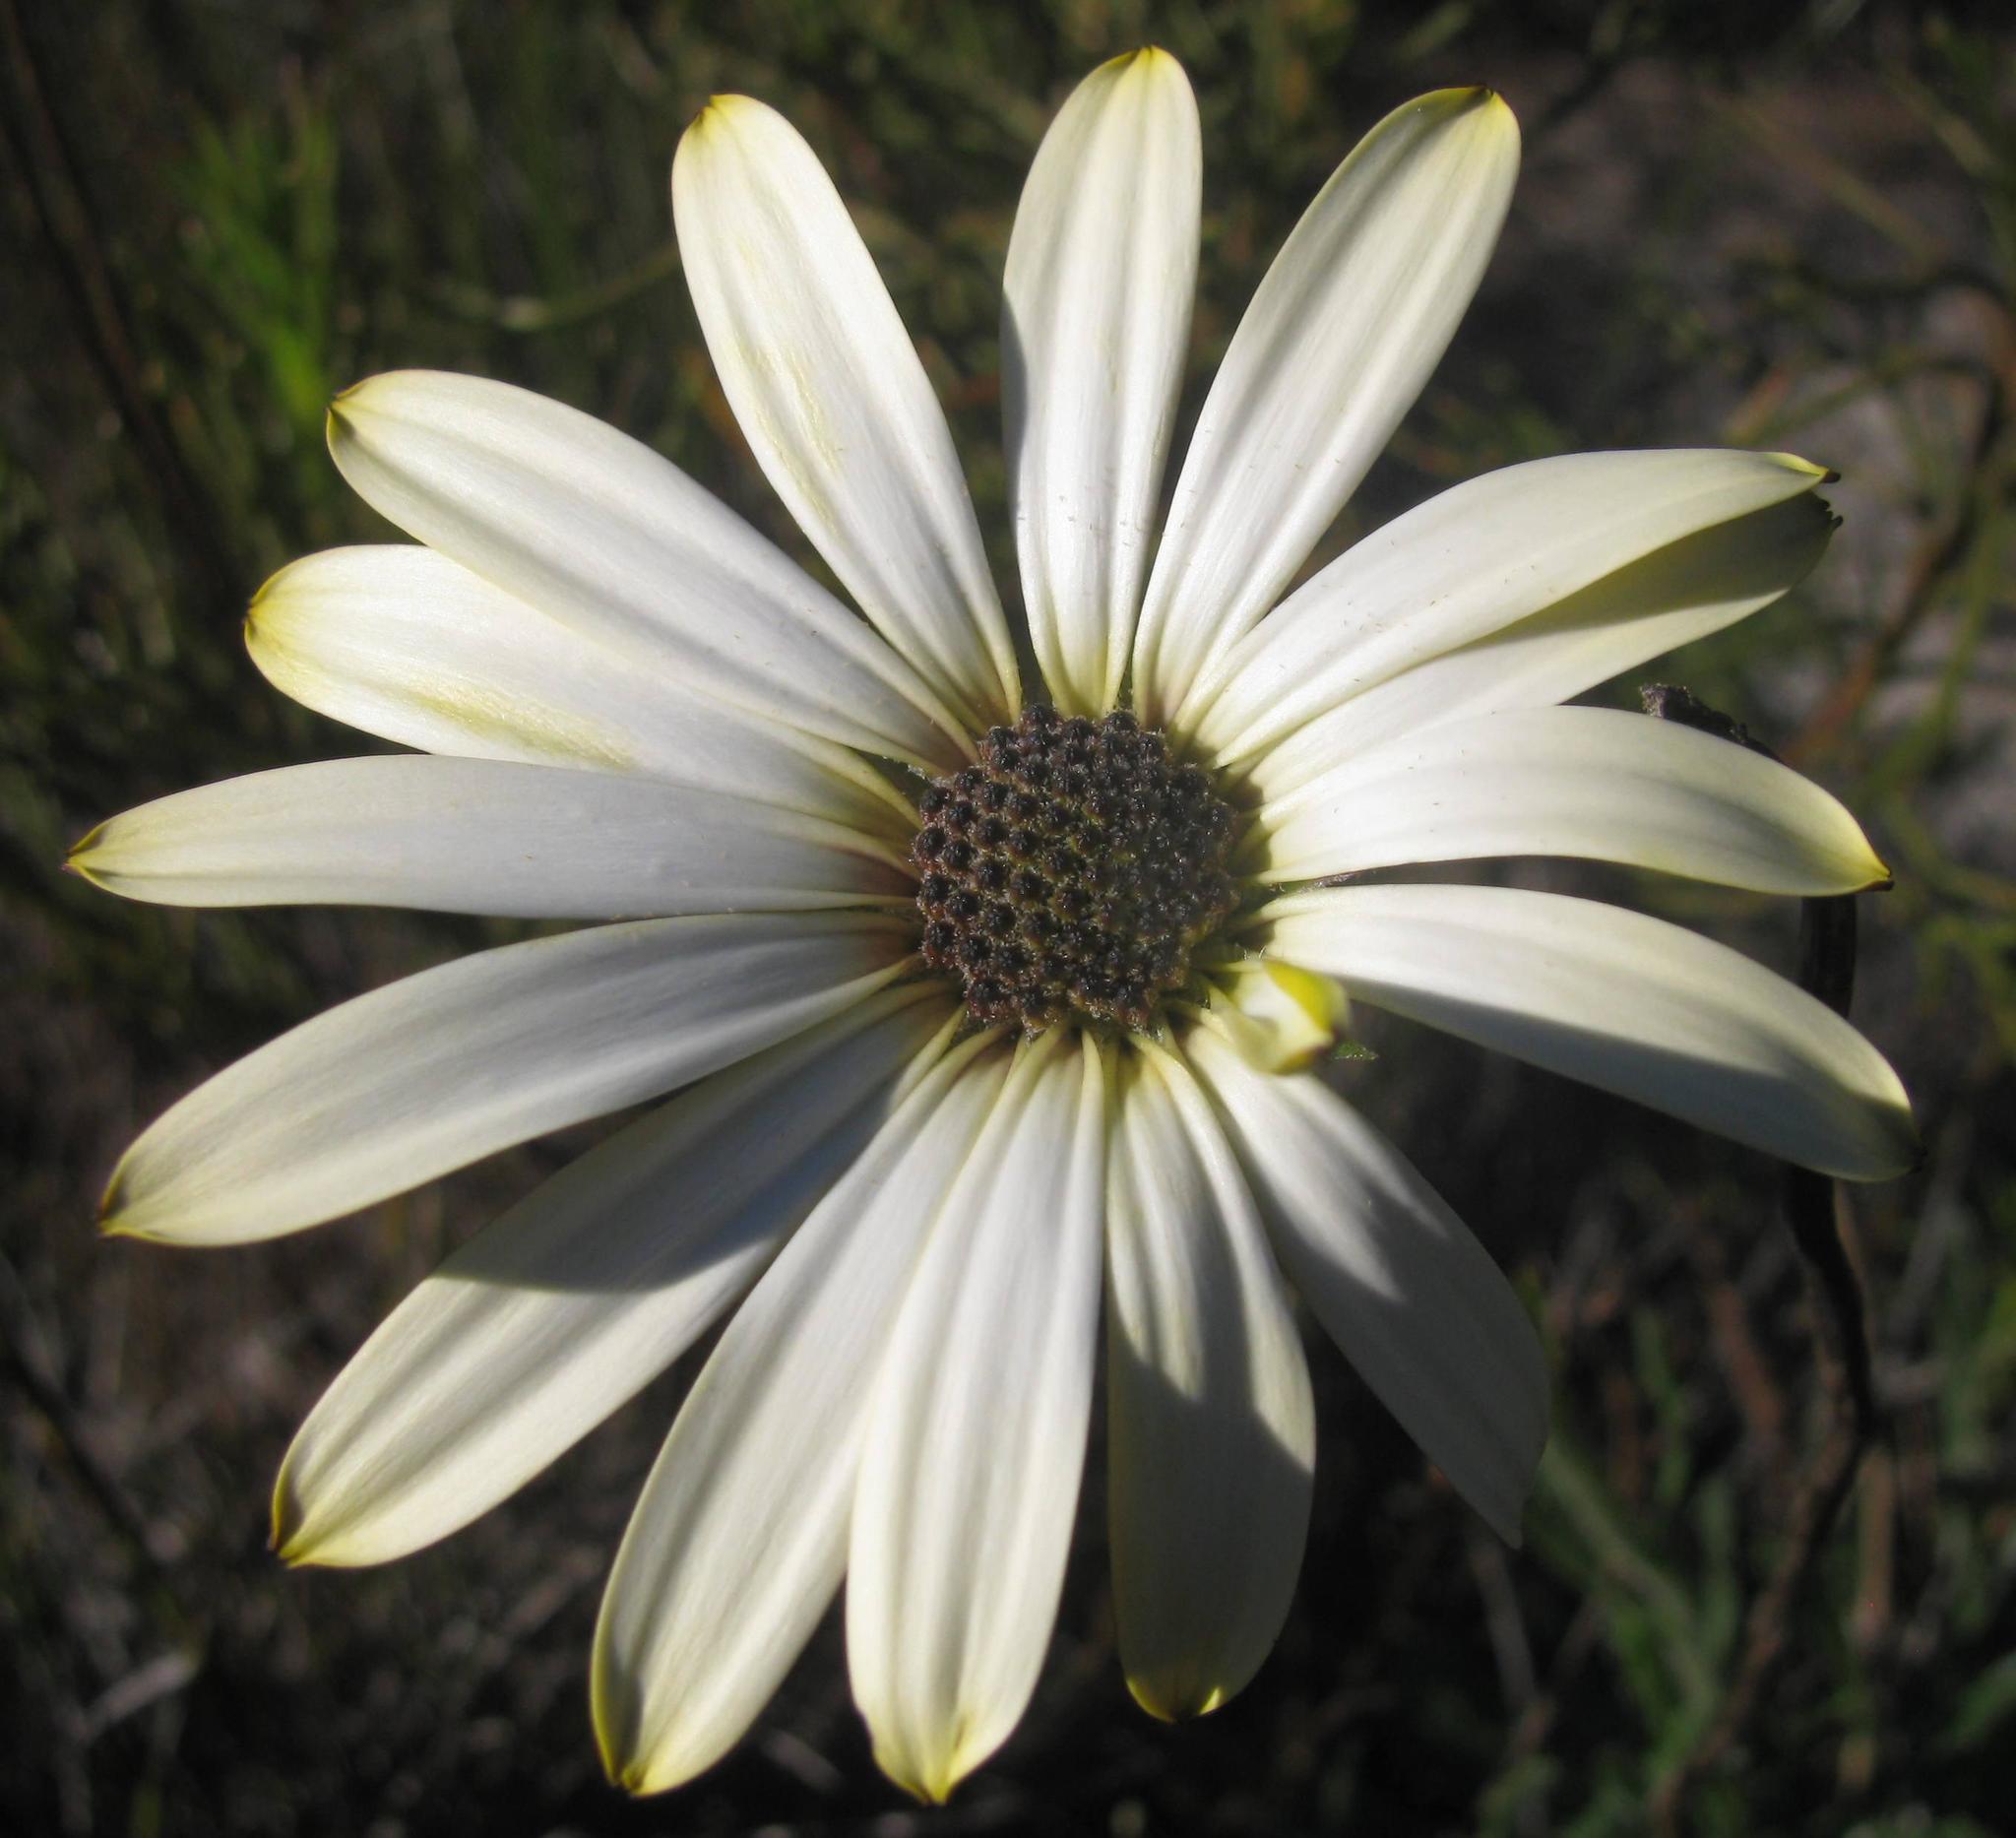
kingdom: Plantae
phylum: Tracheophyta
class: Magnoliopsida
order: Asterales
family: Asteraceae
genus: Dimorphotheca
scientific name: Dimorphotheca nudicaulis
